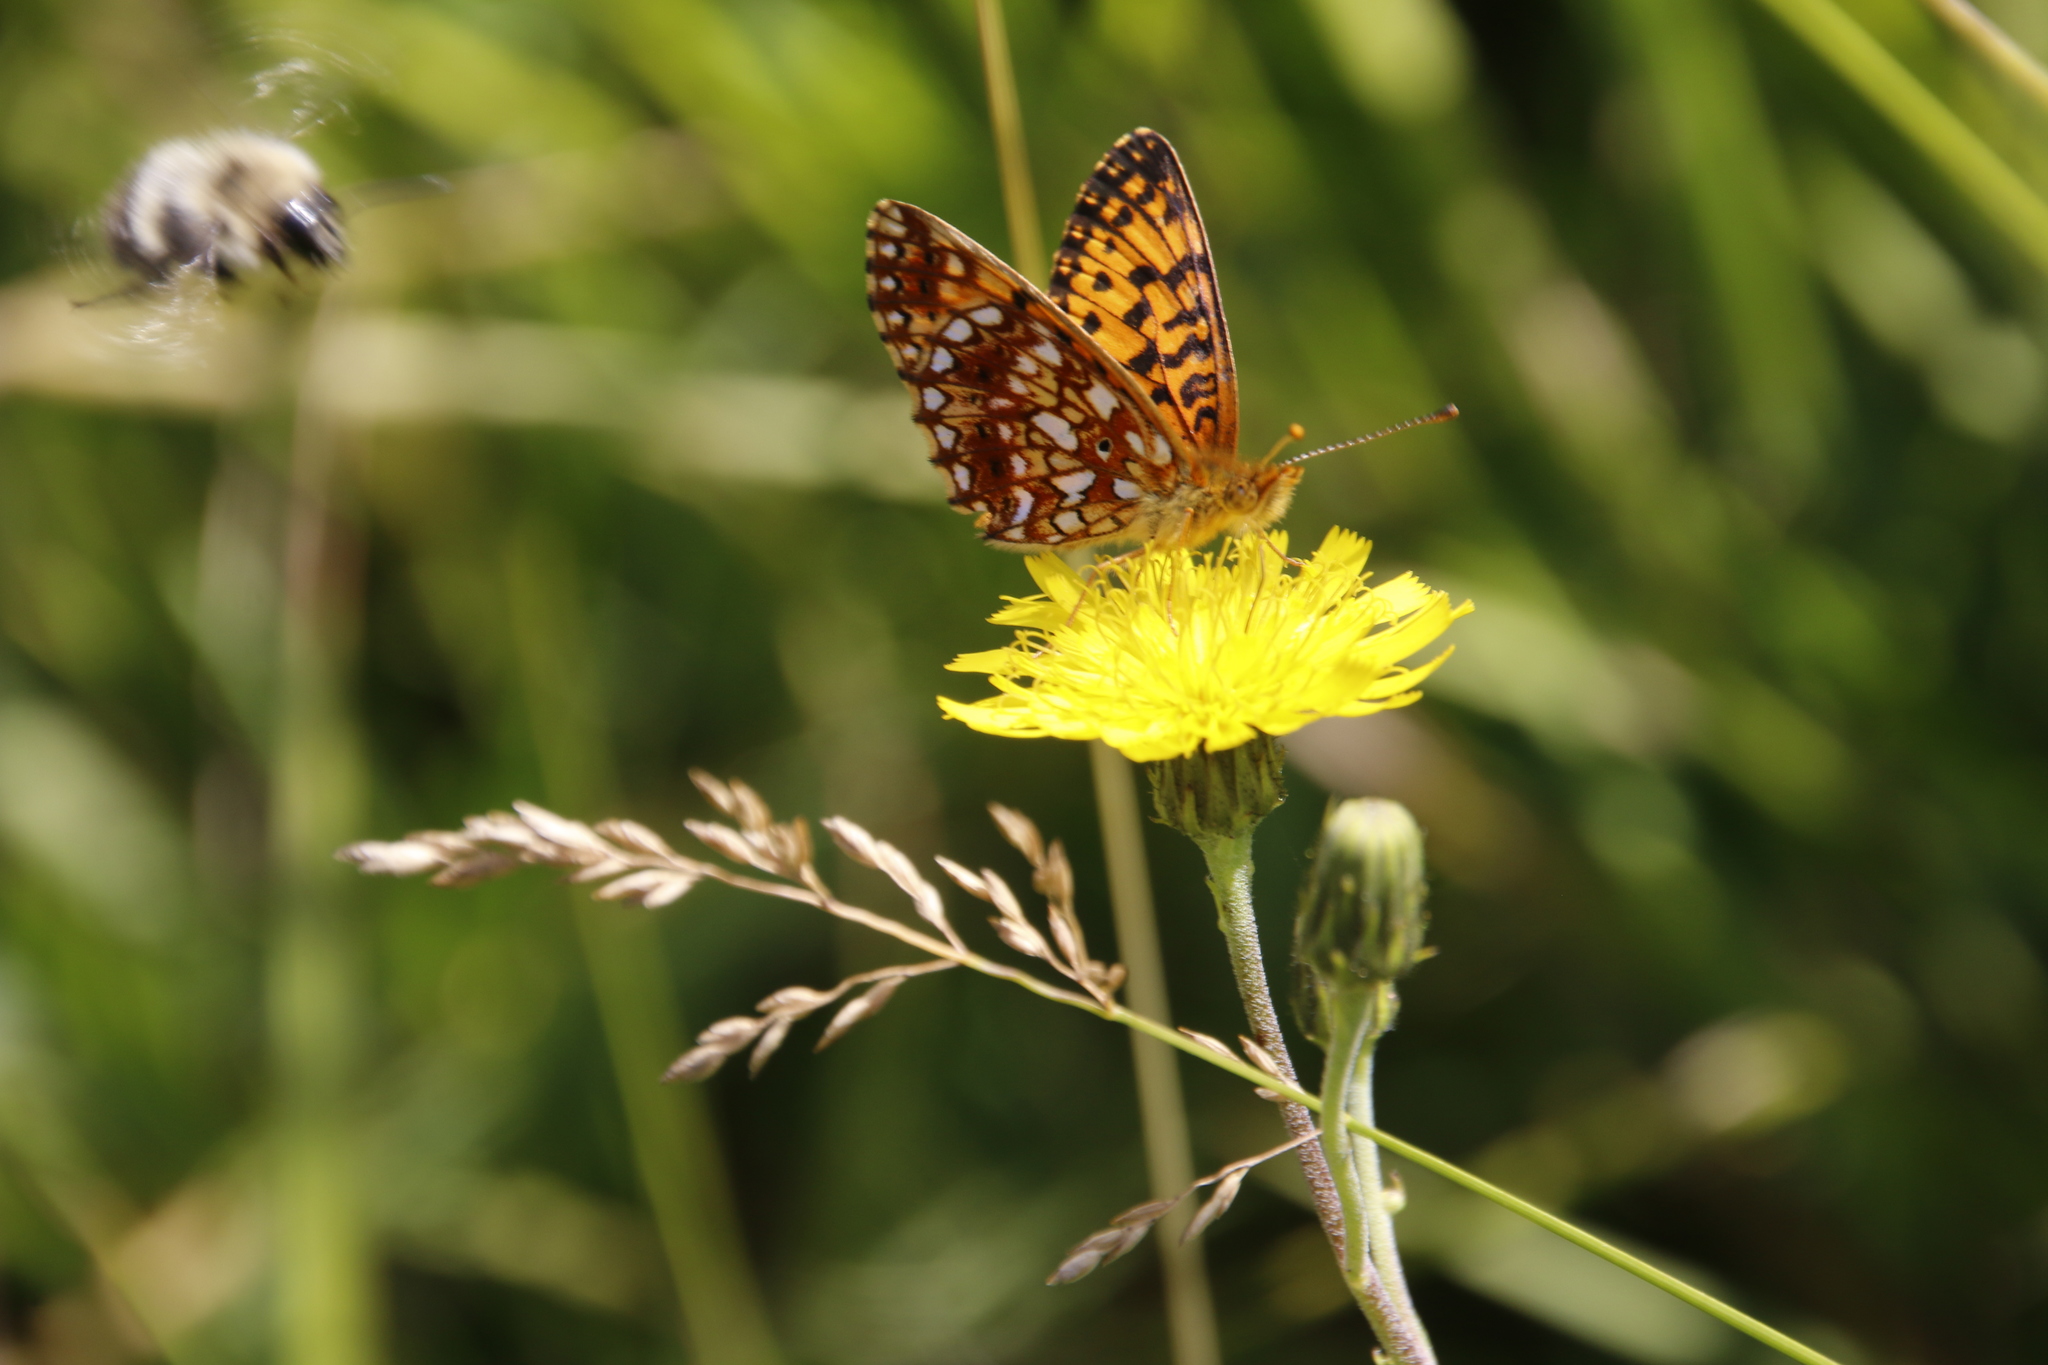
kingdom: Animalia
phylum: Arthropoda
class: Insecta
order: Lepidoptera
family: Nymphalidae
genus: Boloria
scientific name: Boloria
